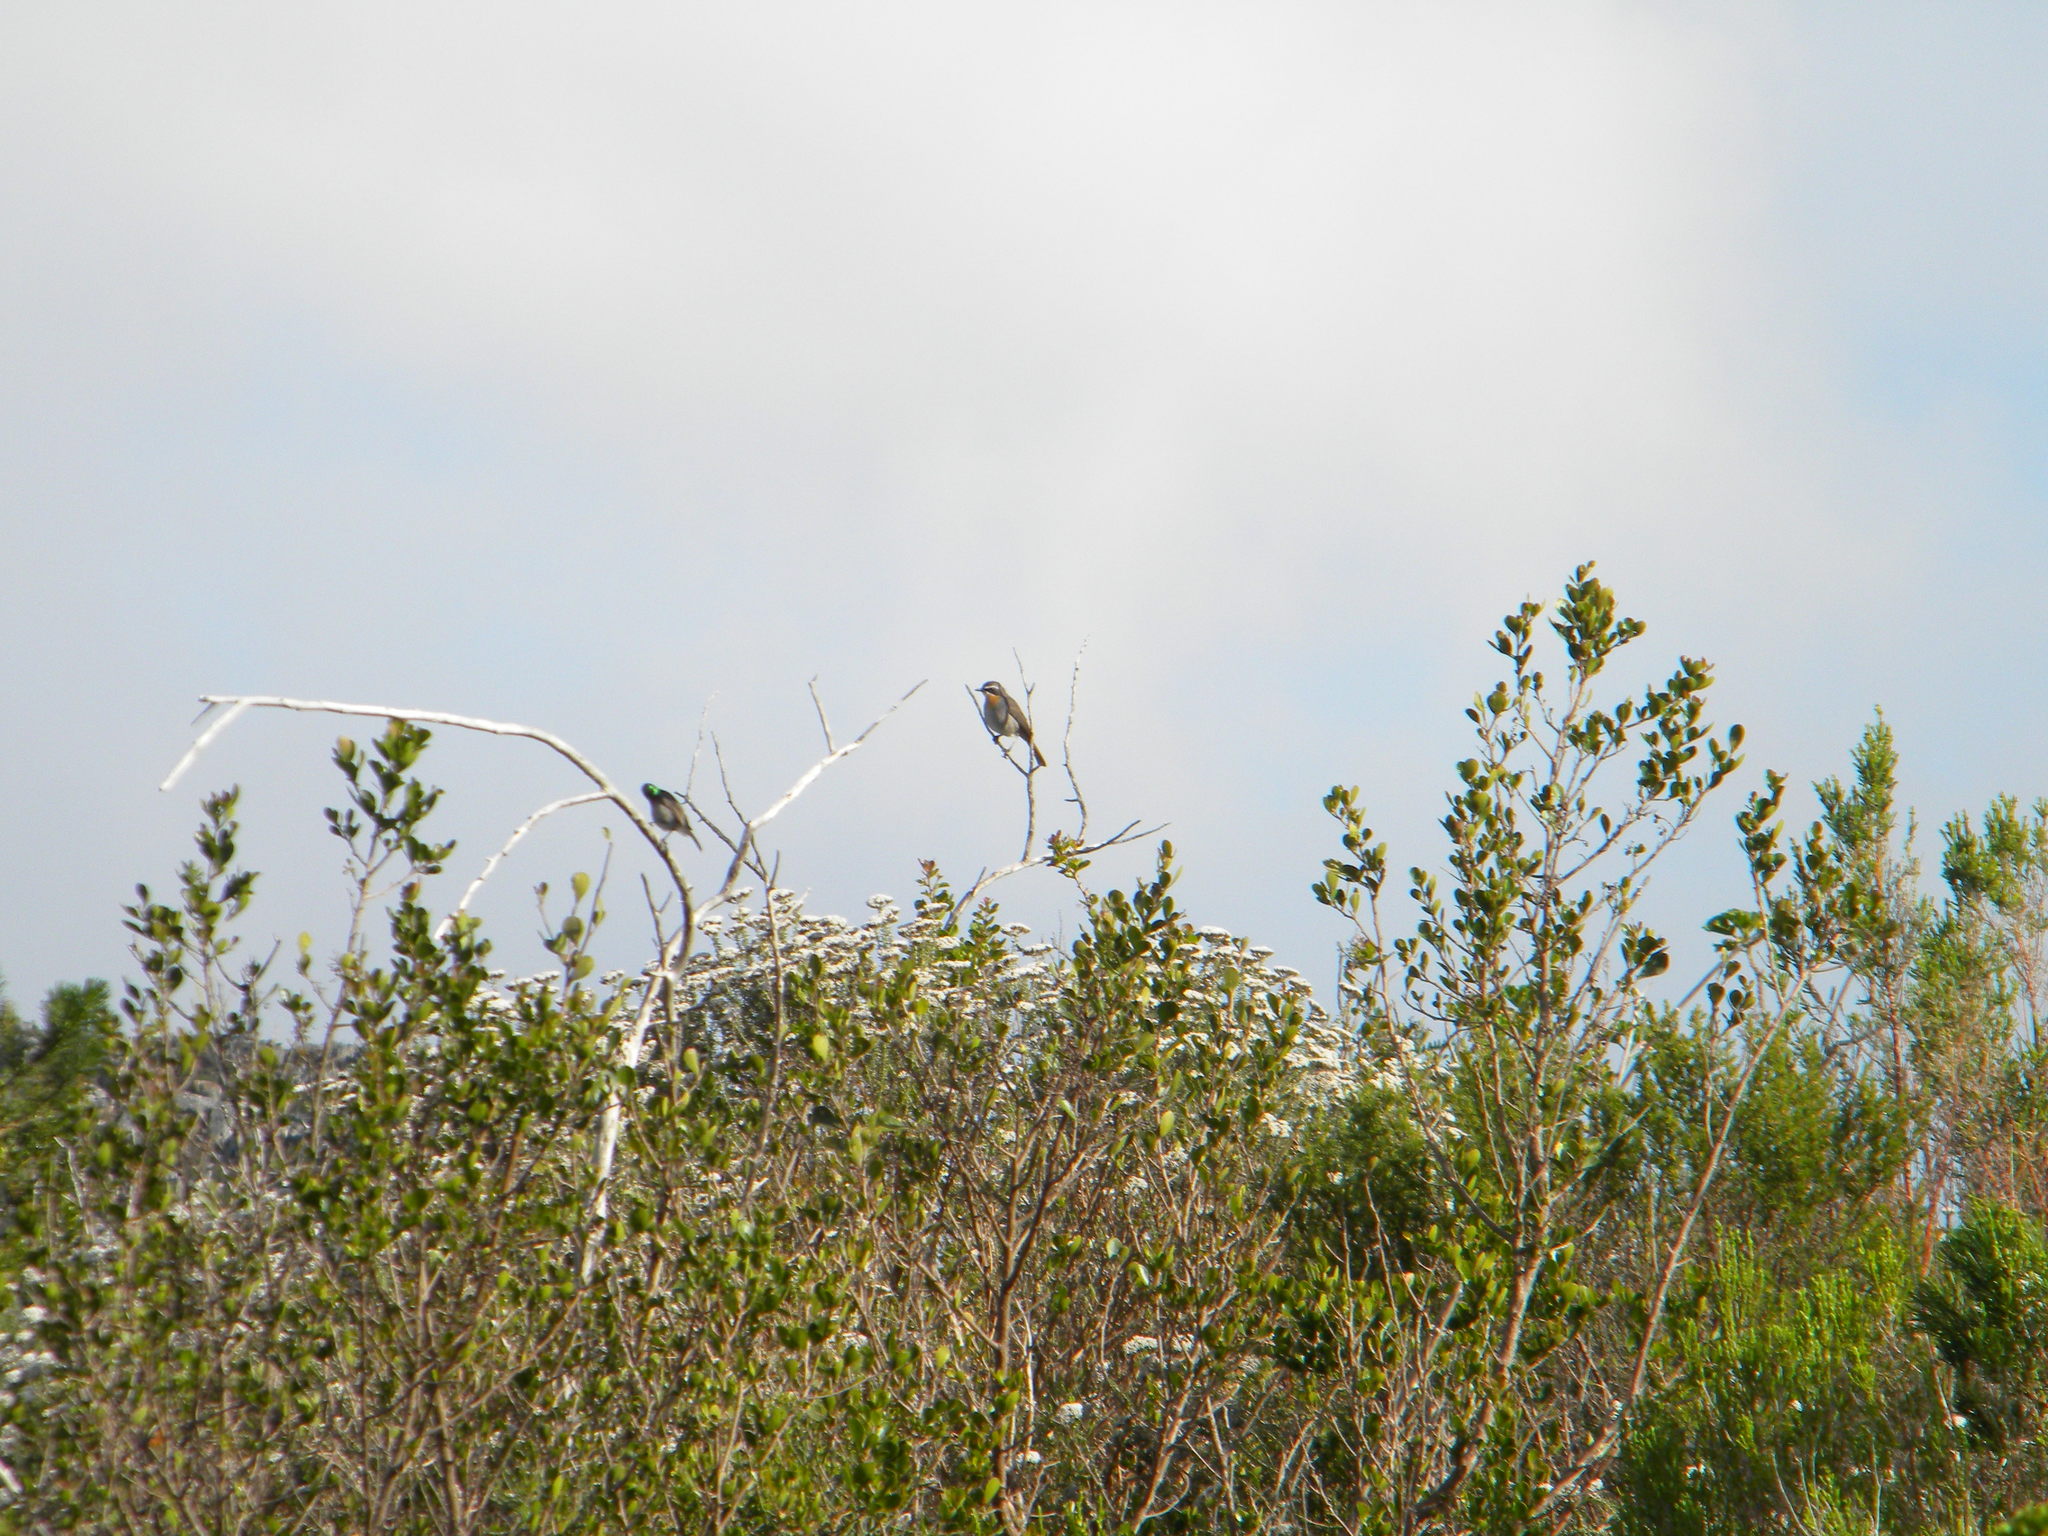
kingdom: Animalia
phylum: Chordata
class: Aves
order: Passeriformes
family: Muscicapidae
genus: Cossypha
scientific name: Cossypha caffra
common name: Cape robin-chat
